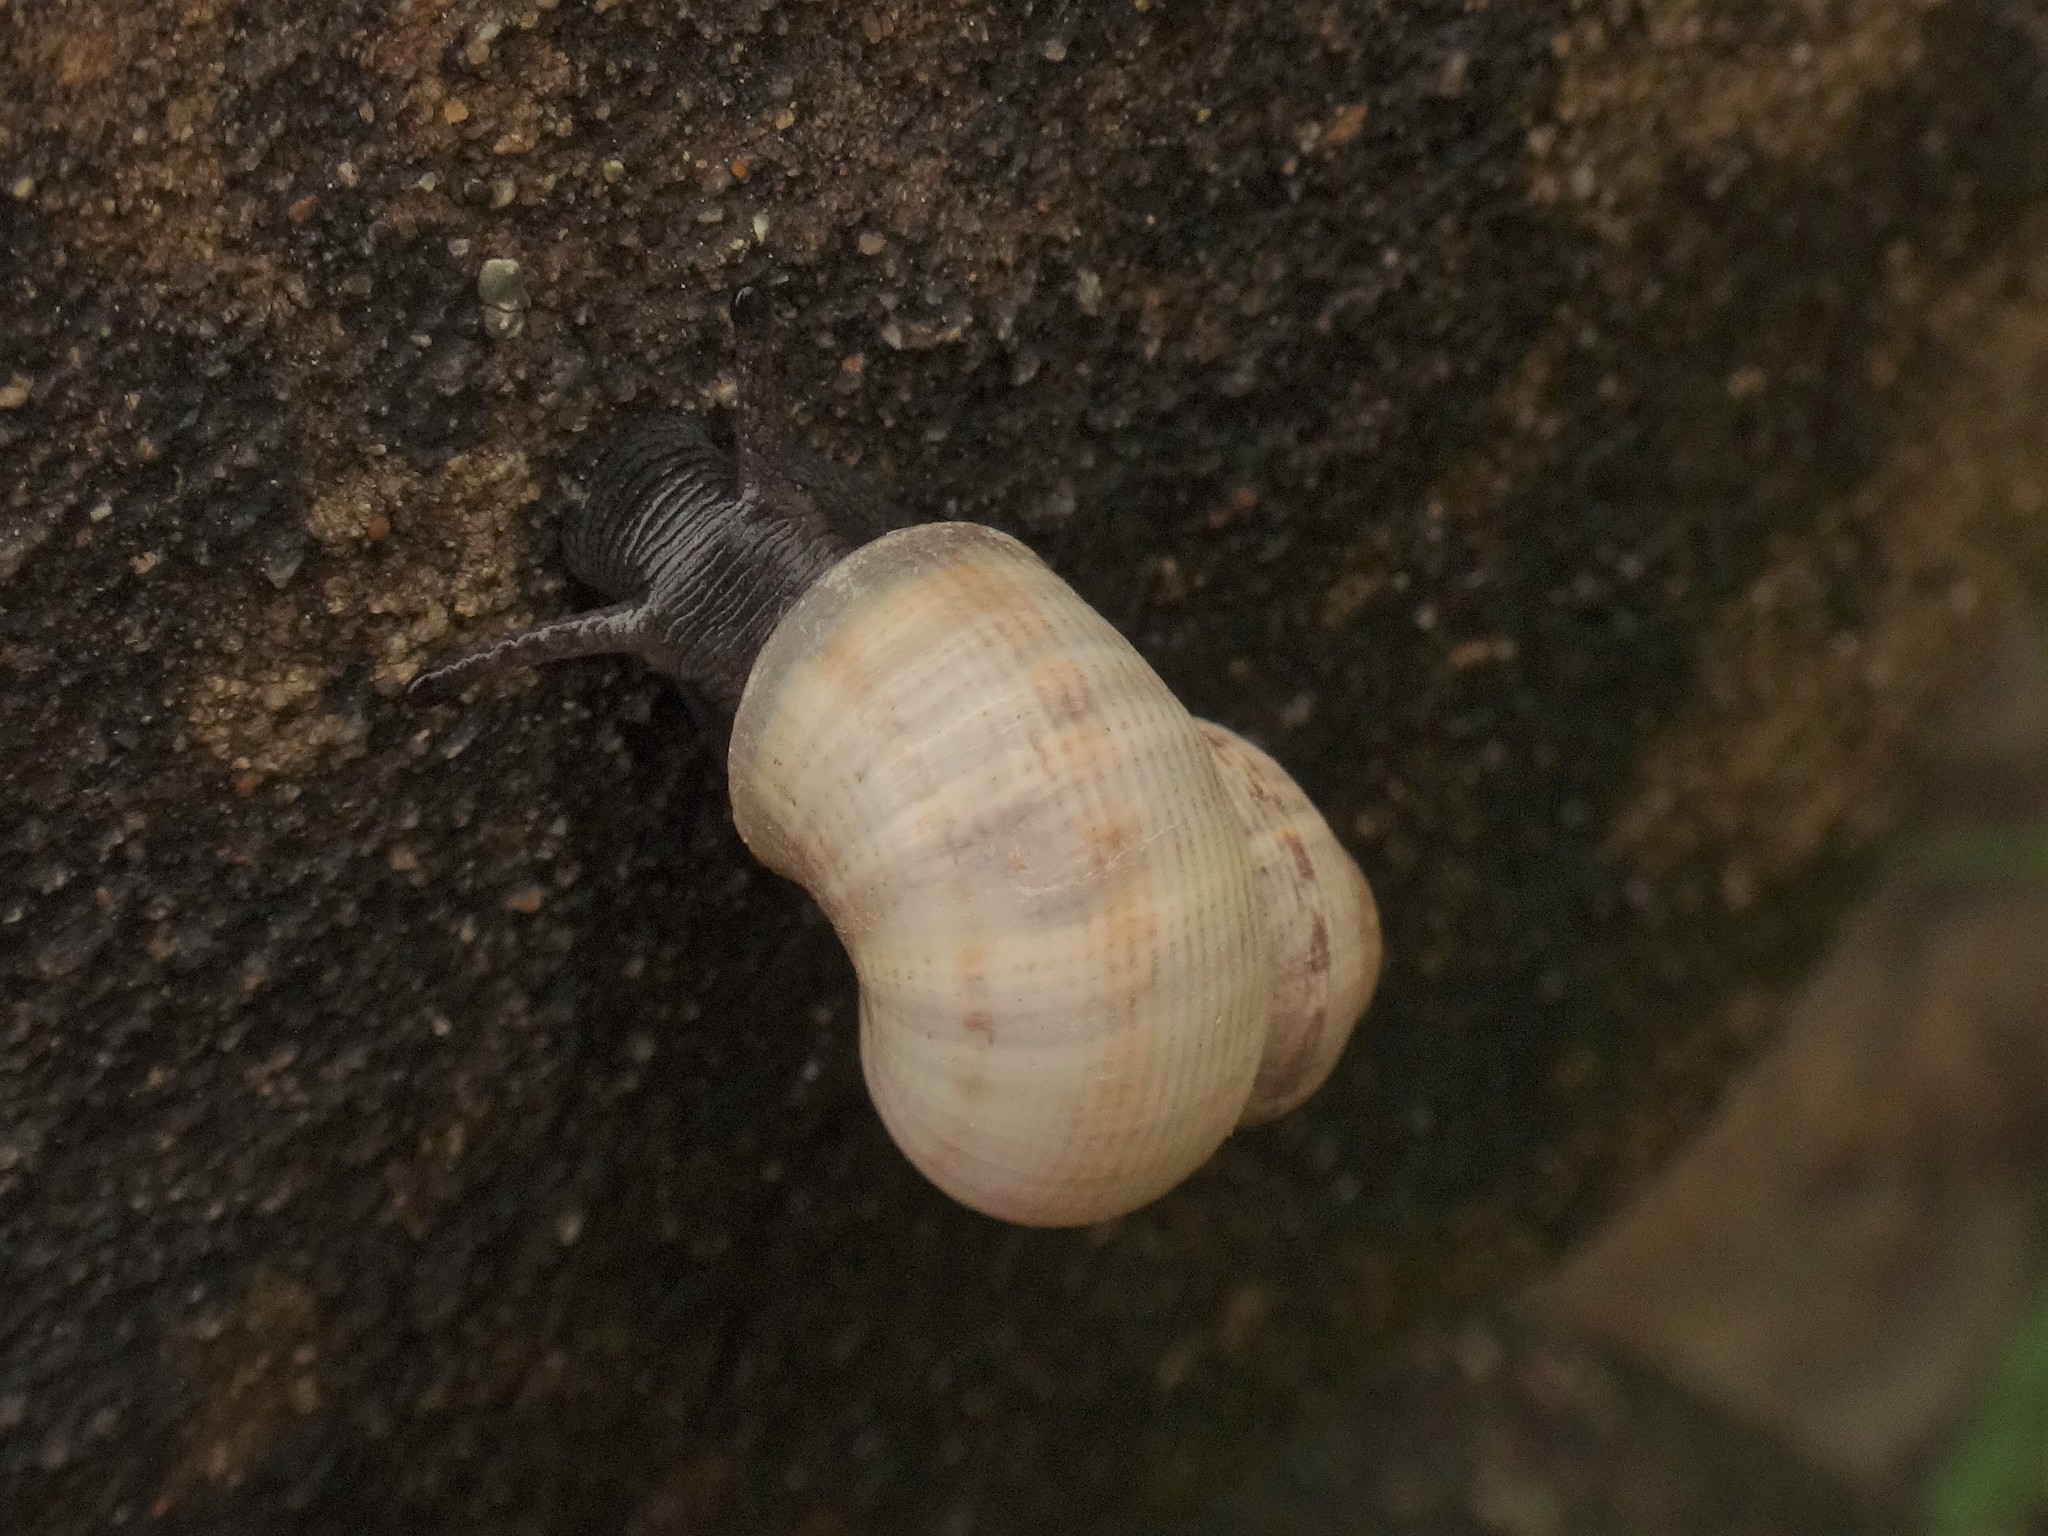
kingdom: Animalia
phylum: Mollusca
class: Gastropoda
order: Littorinimorpha
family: Pomatiidae
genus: Pomatias
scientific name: Pomatias elegans
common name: Red-mouthed snail
